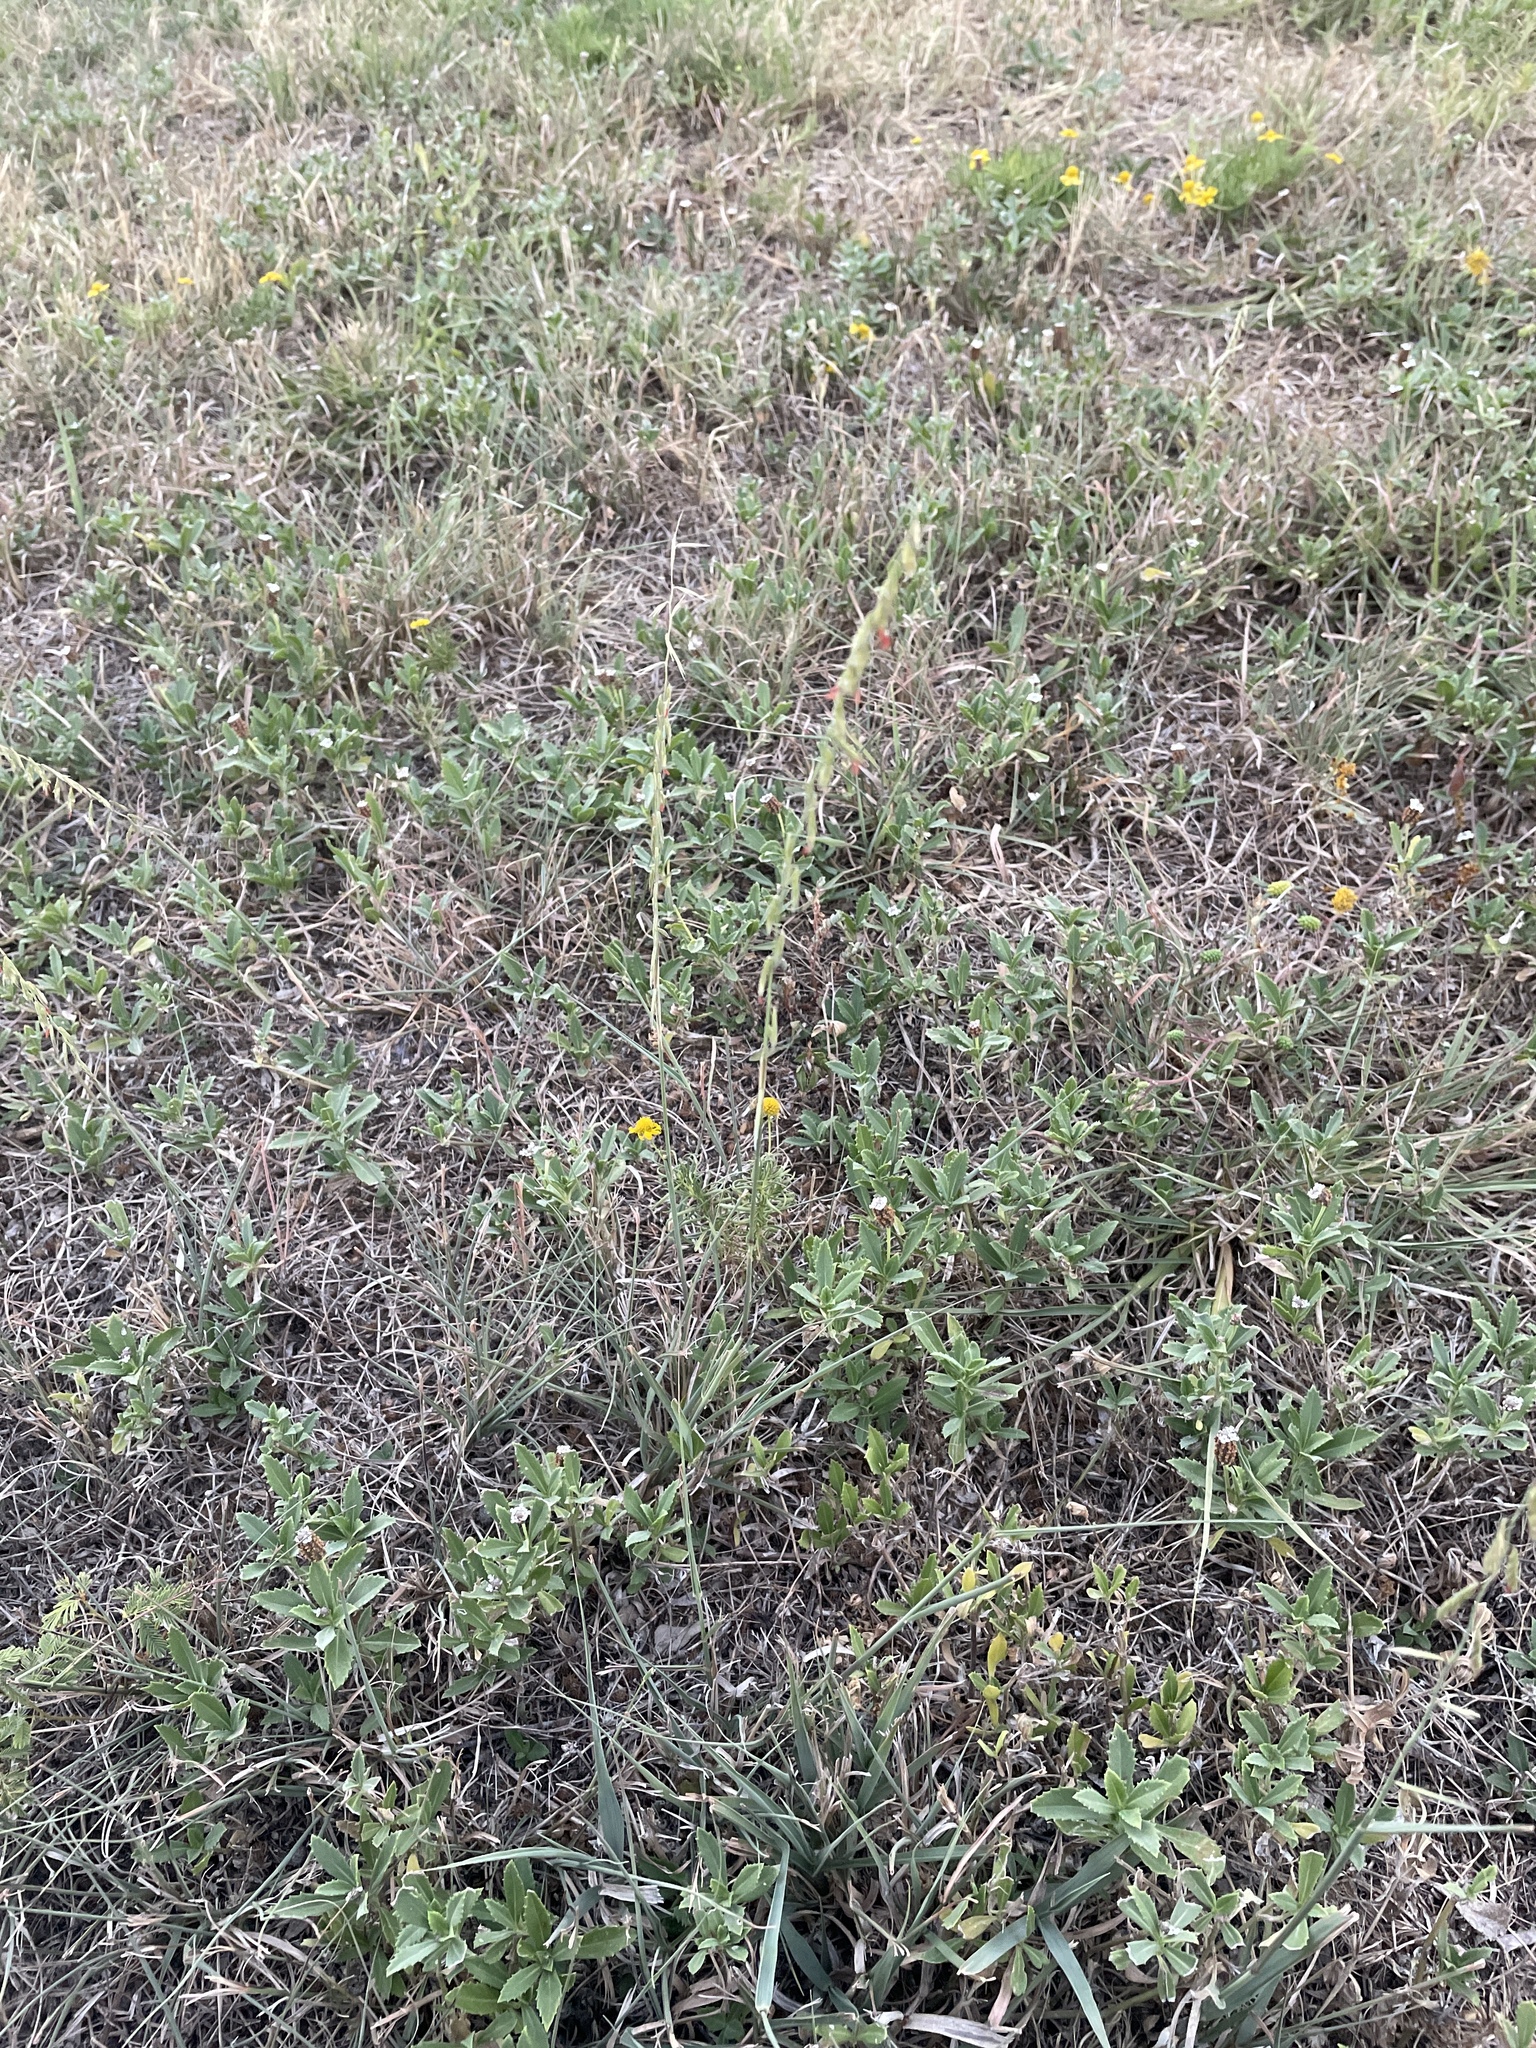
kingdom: Plantae
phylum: Tracheophyta
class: Liliopsida
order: Poales
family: Poaceae
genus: Bouteloua
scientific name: Bouteloua curtipendula
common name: Side-oats grama
